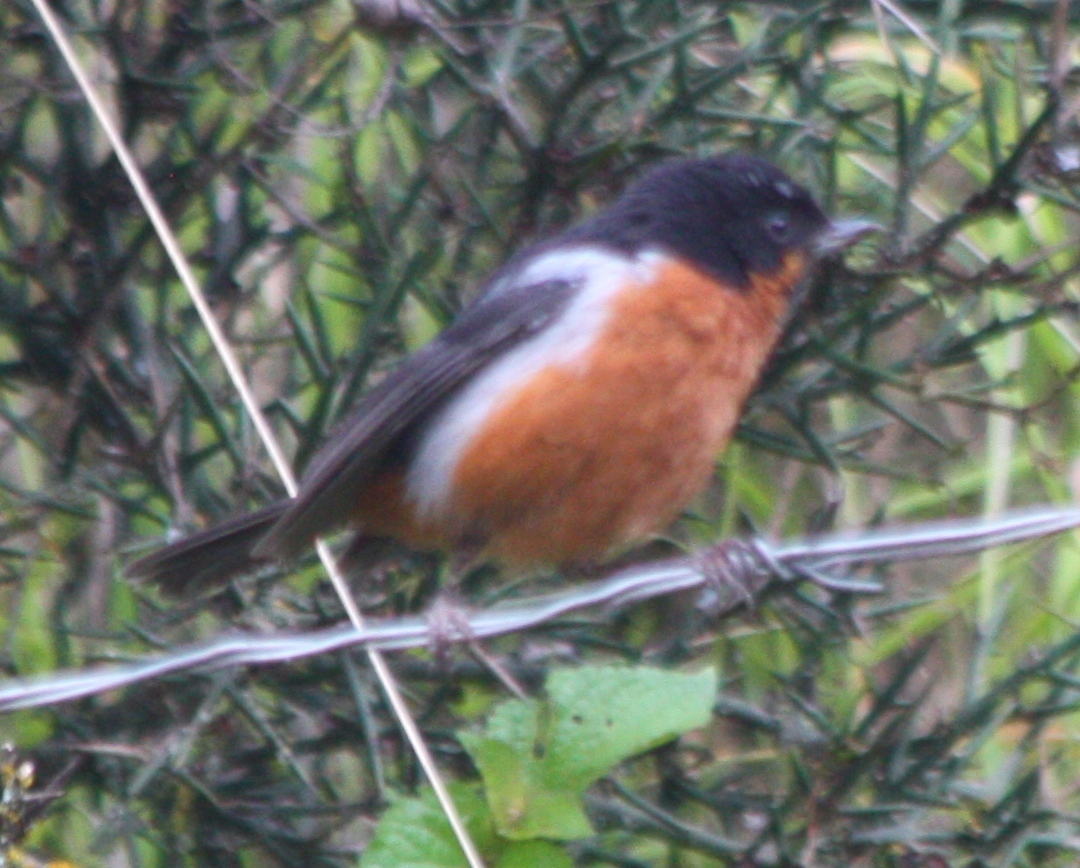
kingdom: Animalia
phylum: Chordata
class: Aves
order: Passeriformes
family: Thraupidae
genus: Diglossa
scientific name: Diglossa brunneiventris
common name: Black-throated flowerpiercer
